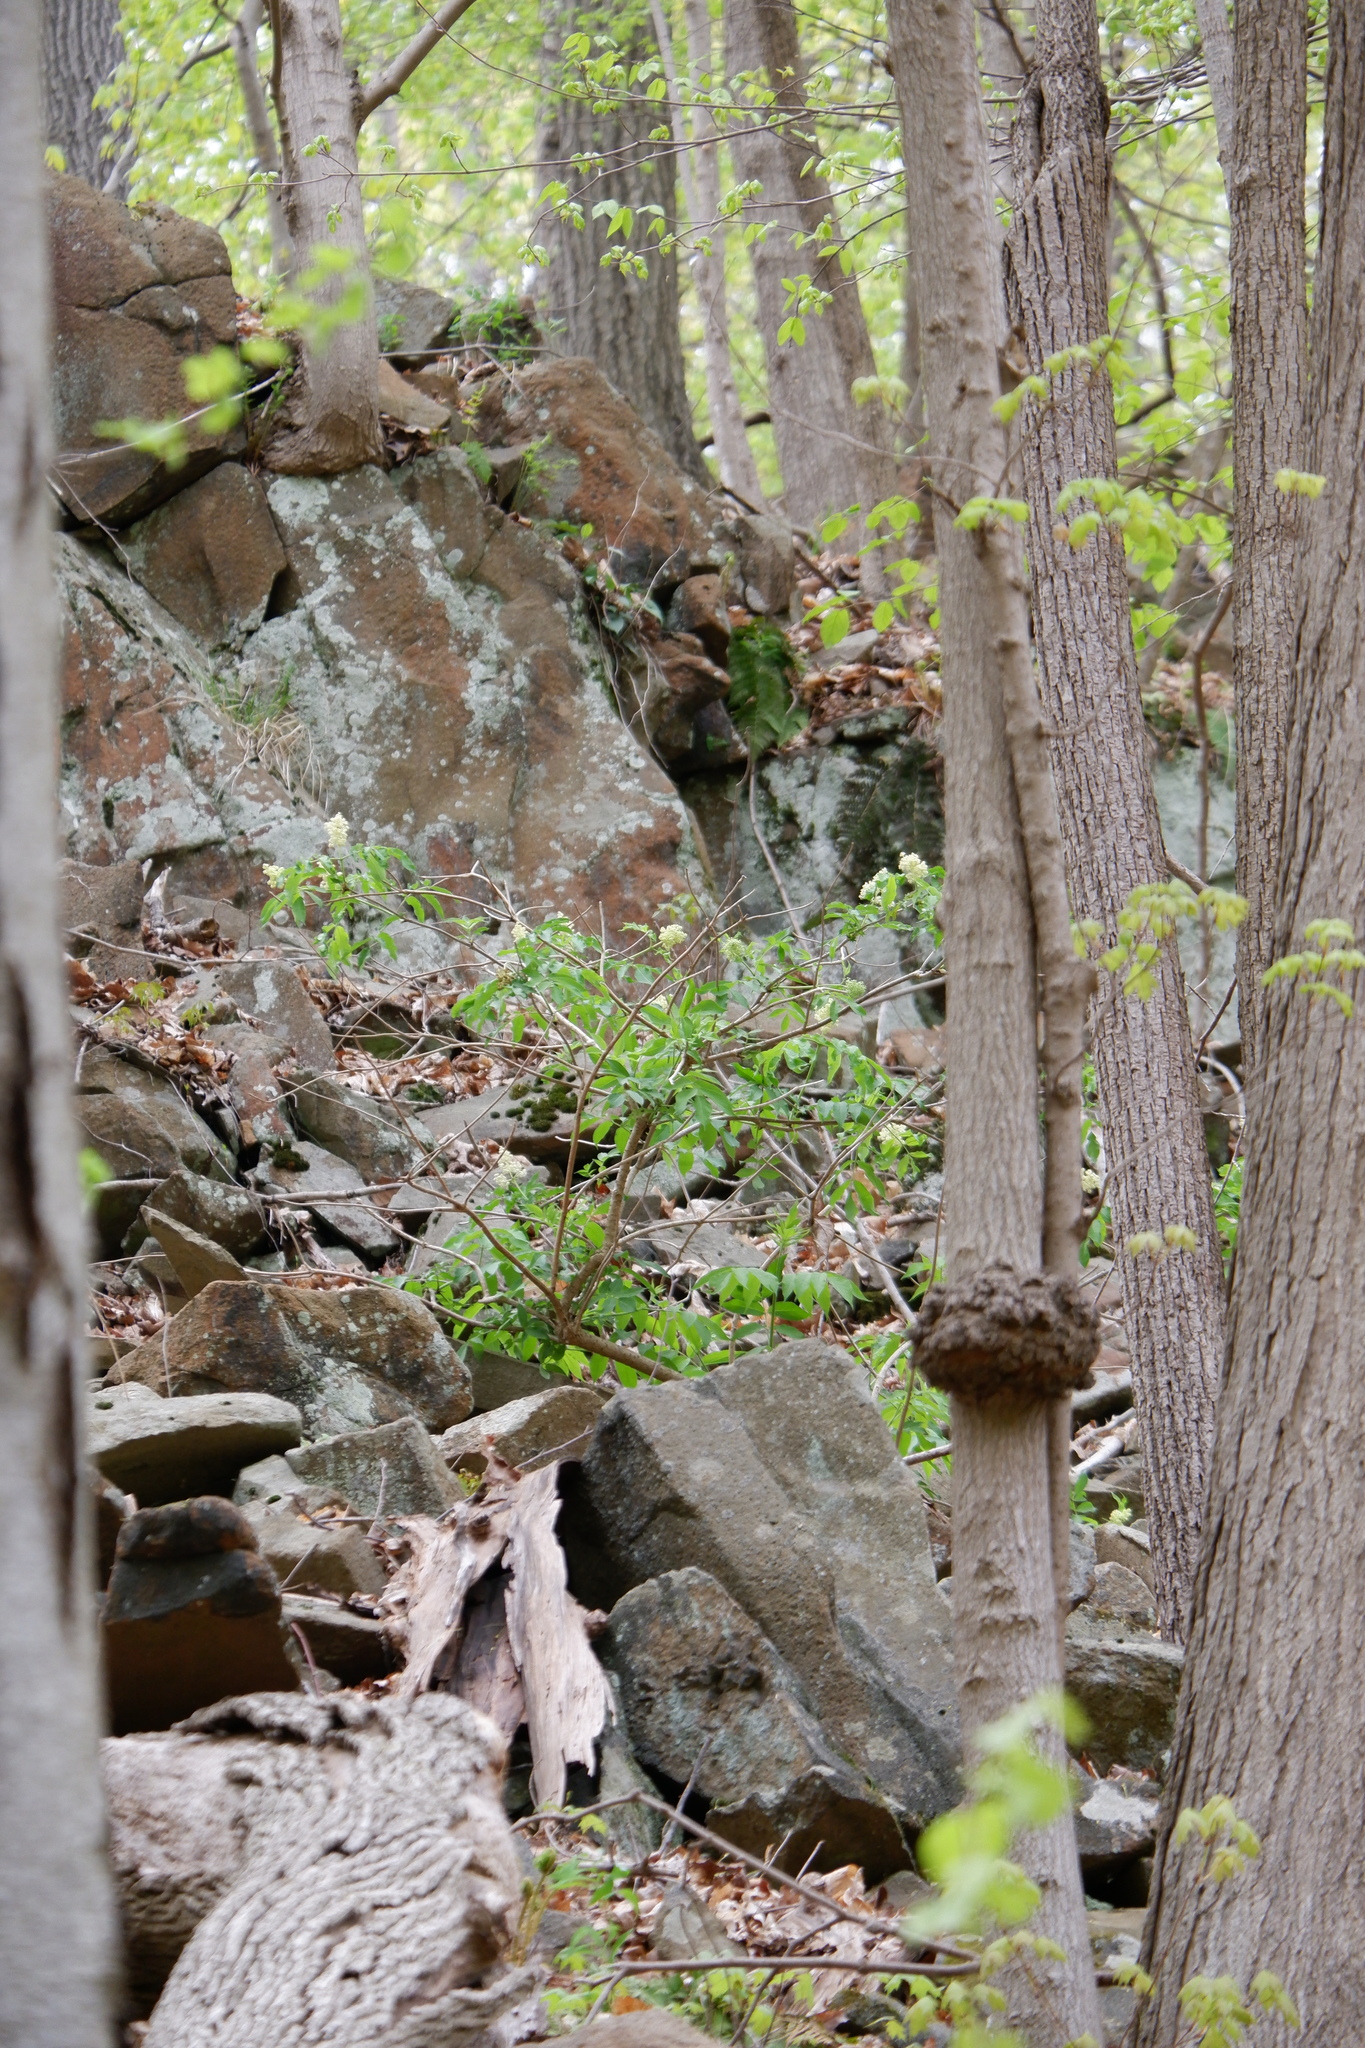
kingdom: Plantae
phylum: Tracheophyta
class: Magnoliopsida
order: Dipsacales
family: Viburnaceae
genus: Sambucus
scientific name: Sambucus racemosa
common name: Red-berried elder
